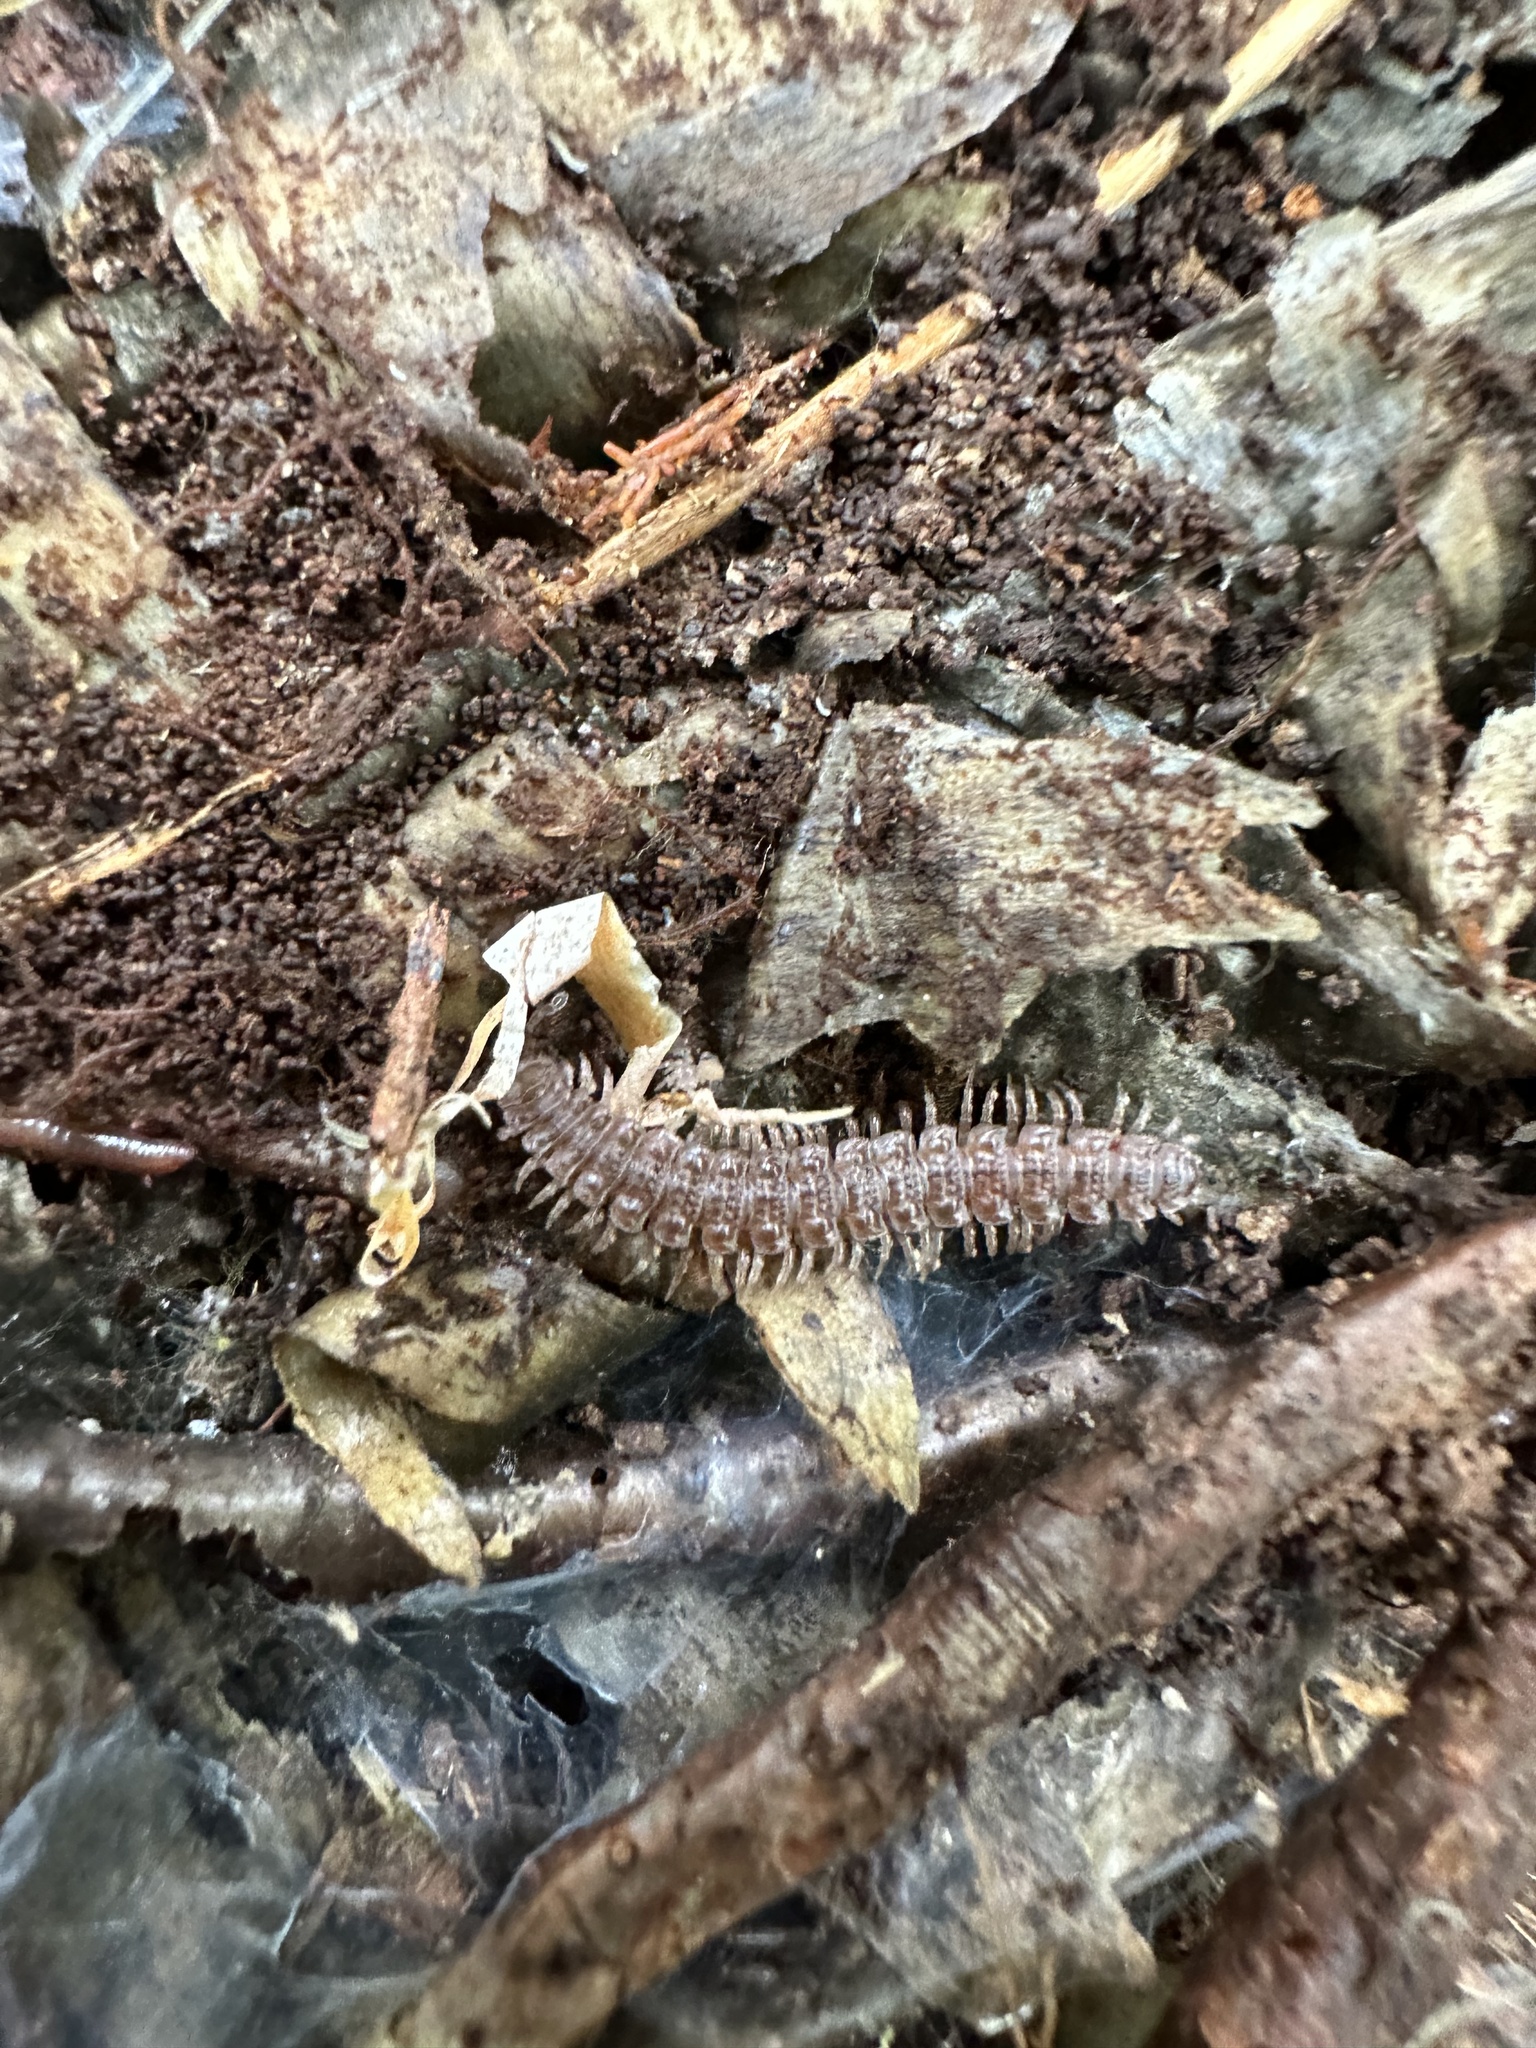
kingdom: Animalia
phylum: Arthropoda
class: Diplopoda
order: Polydesmida
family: Polydesmidae
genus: Polydesmus
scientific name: Polydesmus angustus
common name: Flat millipede
